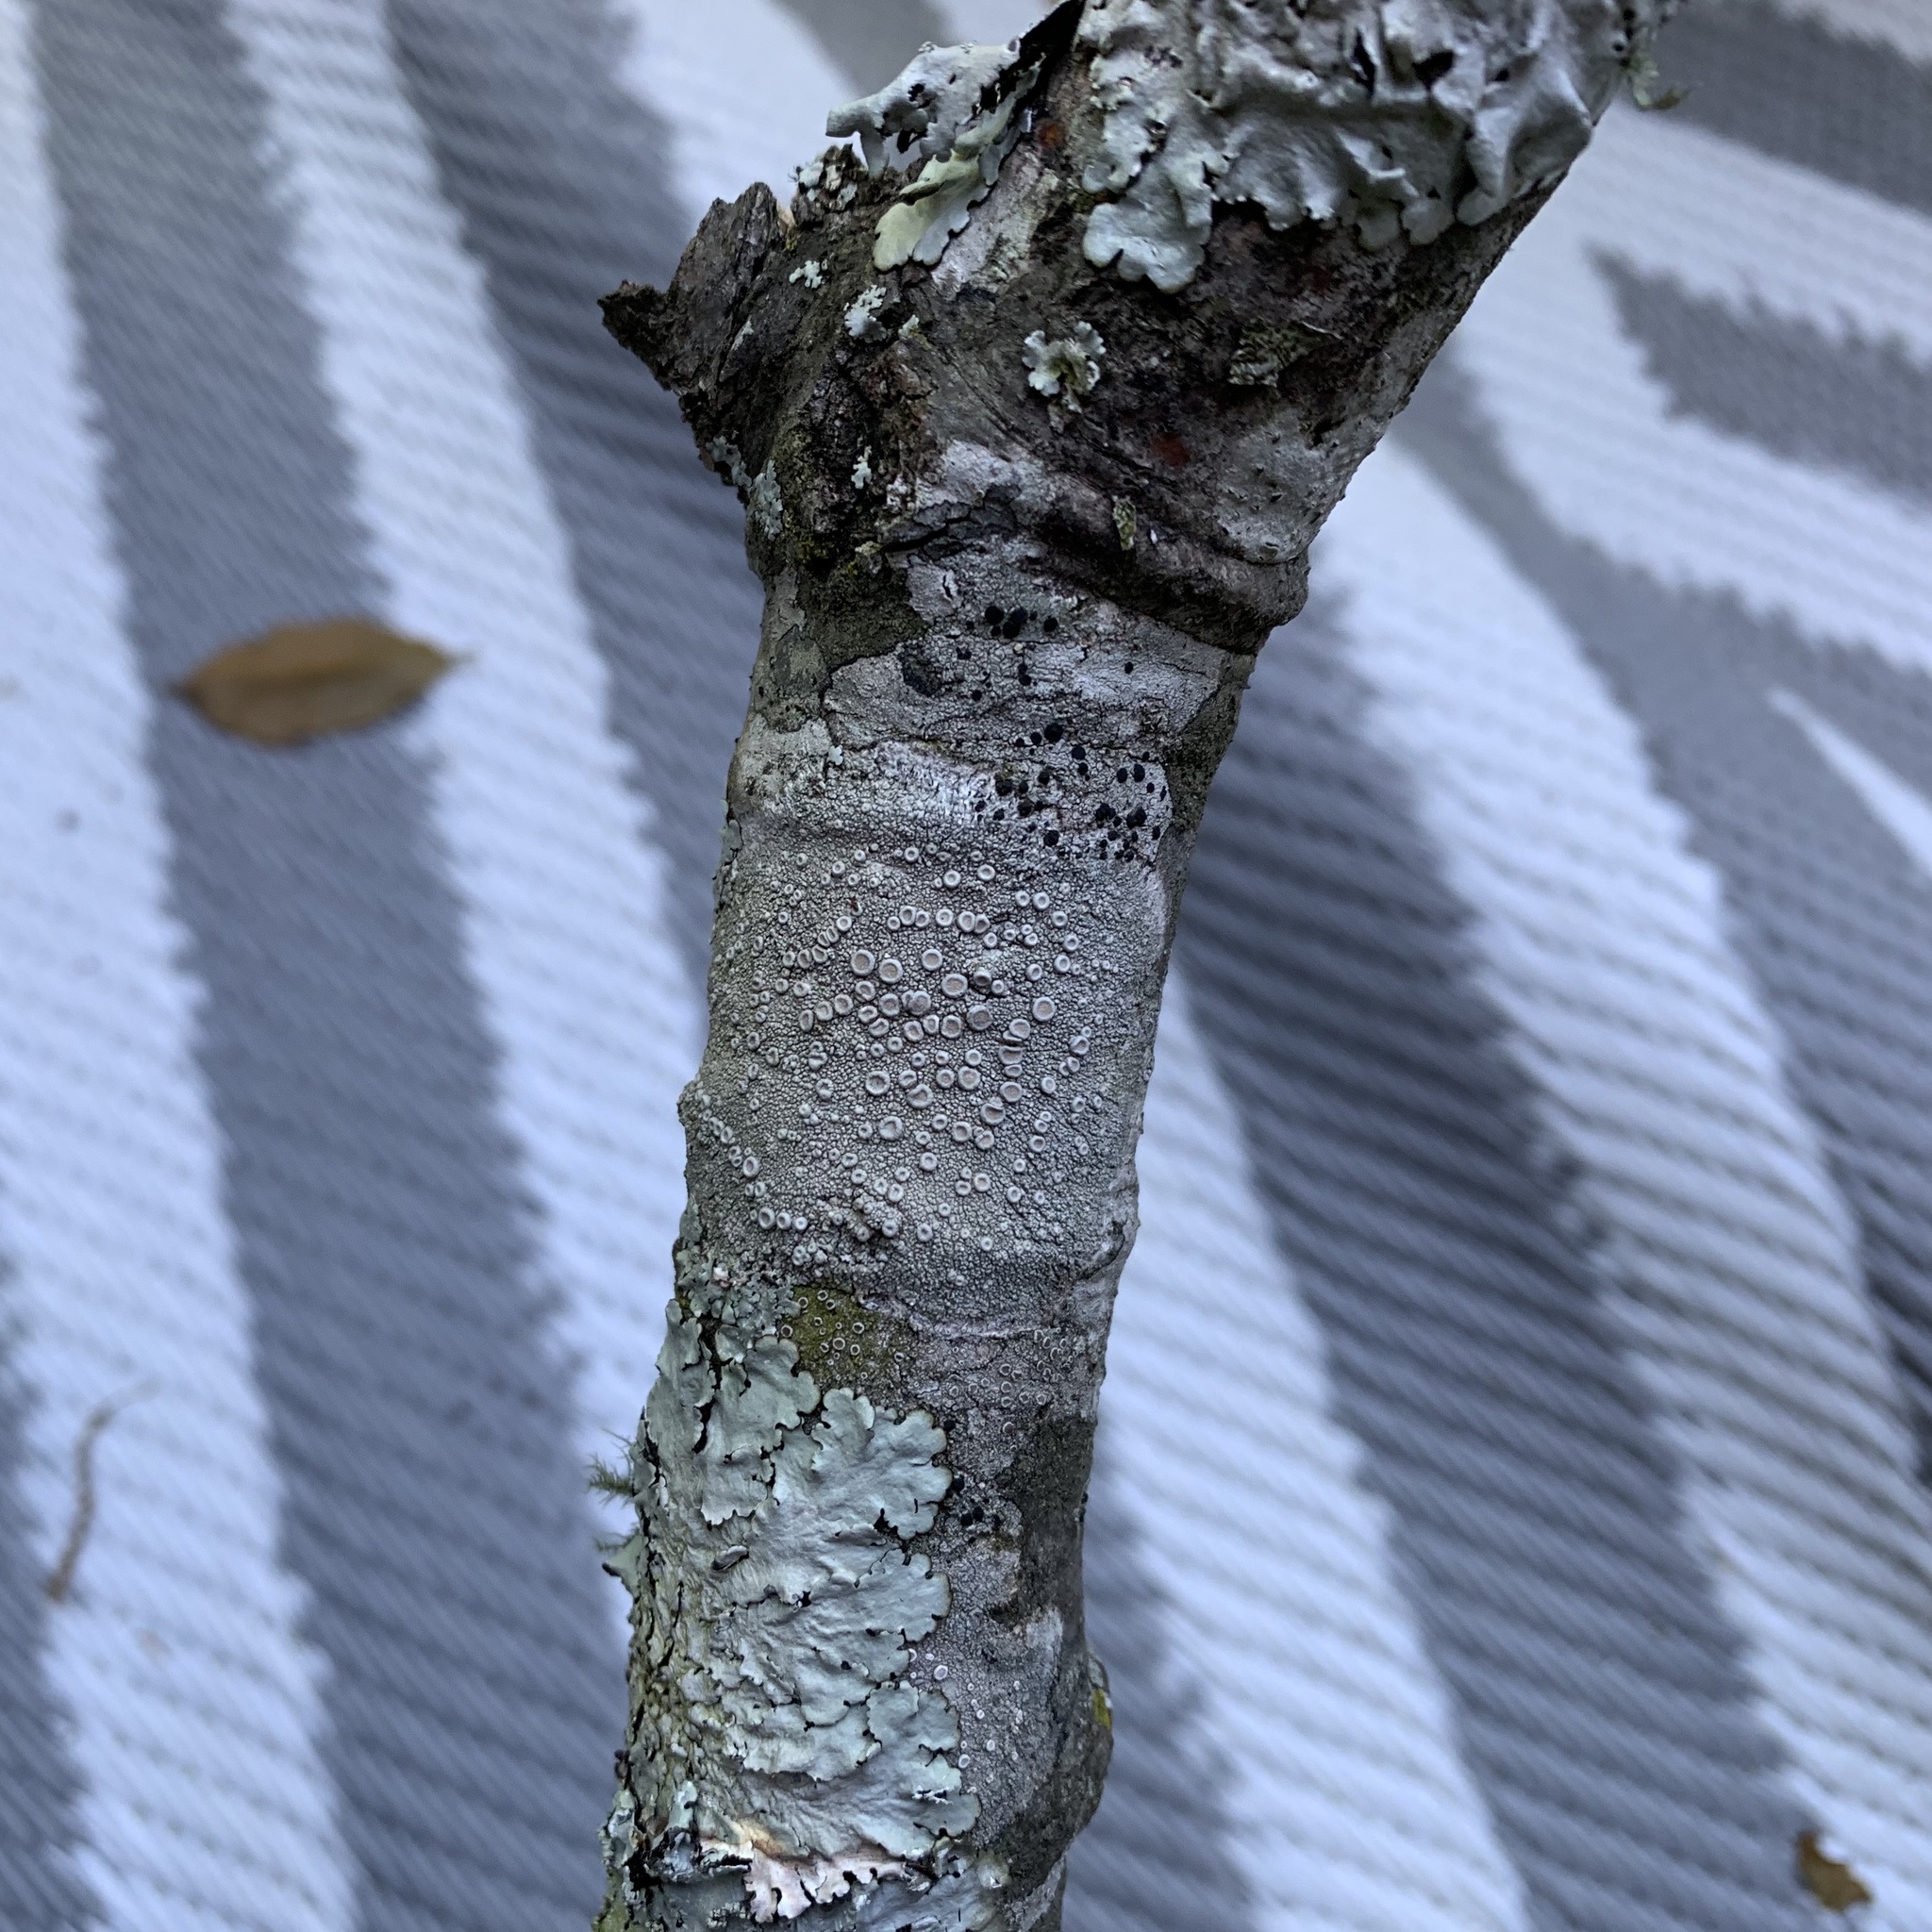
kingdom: Fungi
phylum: Ascomycota
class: Lecanoromycetes
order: Pertusariales
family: Ochrolechiaceae
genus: Ochrolechia
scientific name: Ochrolechia africana
